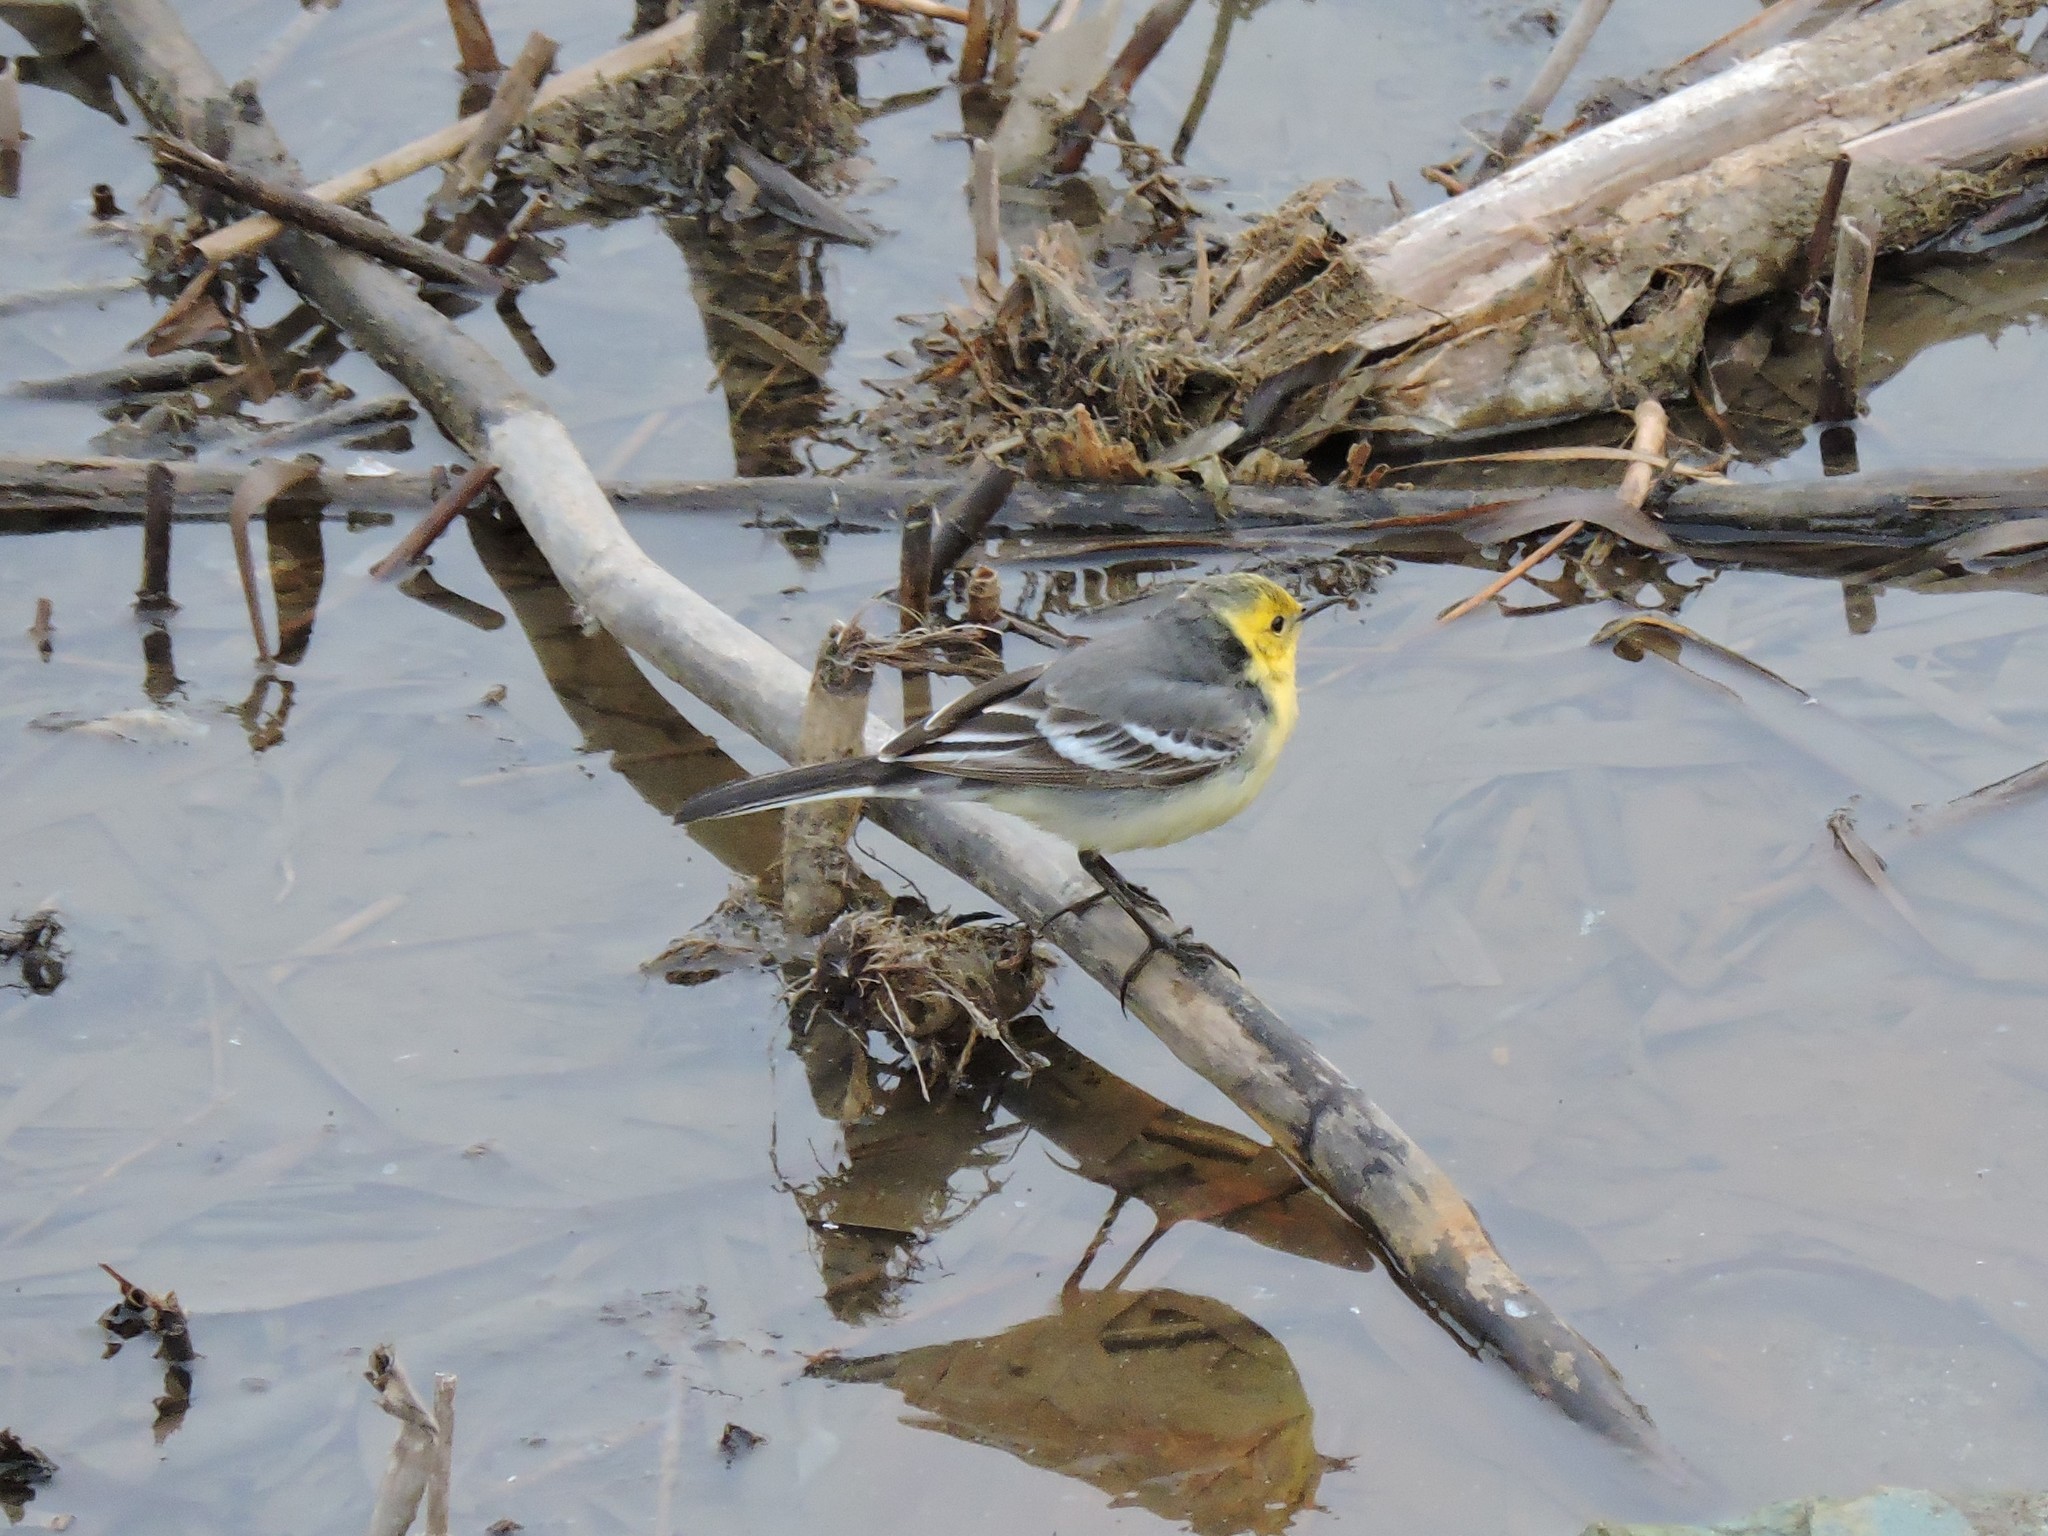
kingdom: Animalia
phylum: Chordata
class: Aves
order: Passeriformes
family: Motacillidae
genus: Motacilla
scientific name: Motacilla citreola
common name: Citrine wagtail
